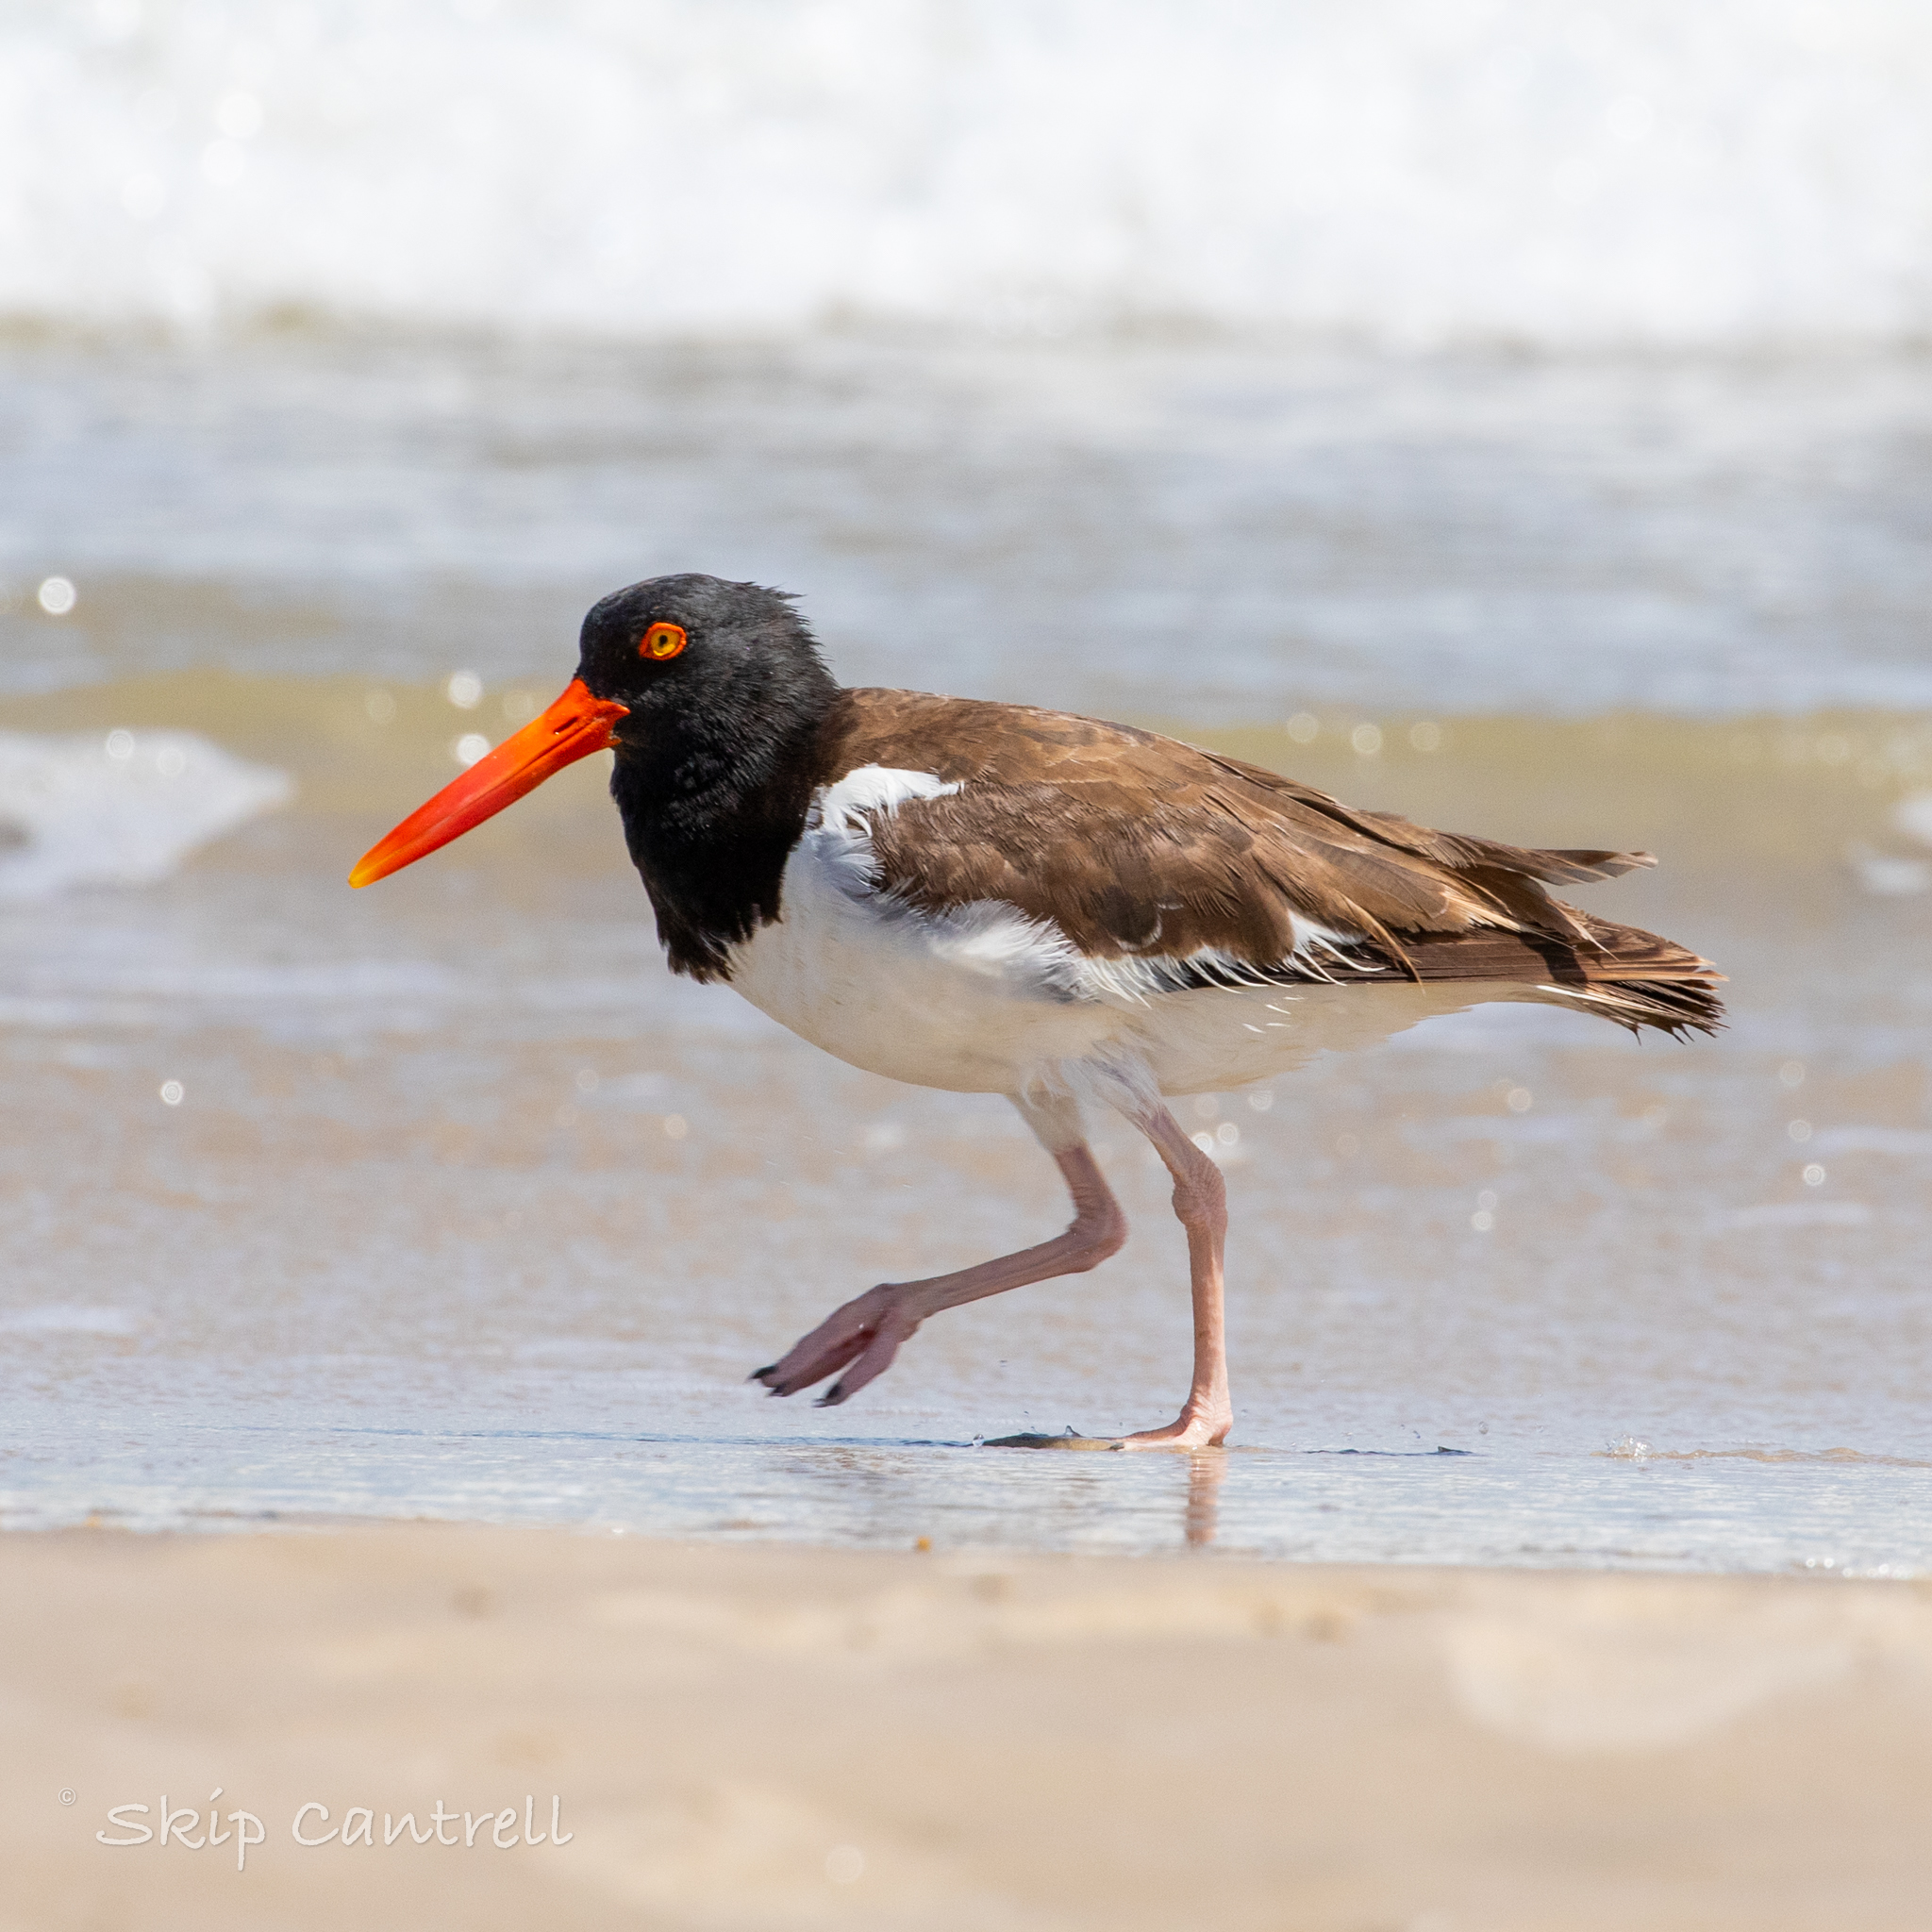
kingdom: Animalia
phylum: Chordata
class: Aves
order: Charadriiformes
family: Haematopodidae
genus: Haematopus
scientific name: Haematopus palliatus
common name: American oystercatcher
